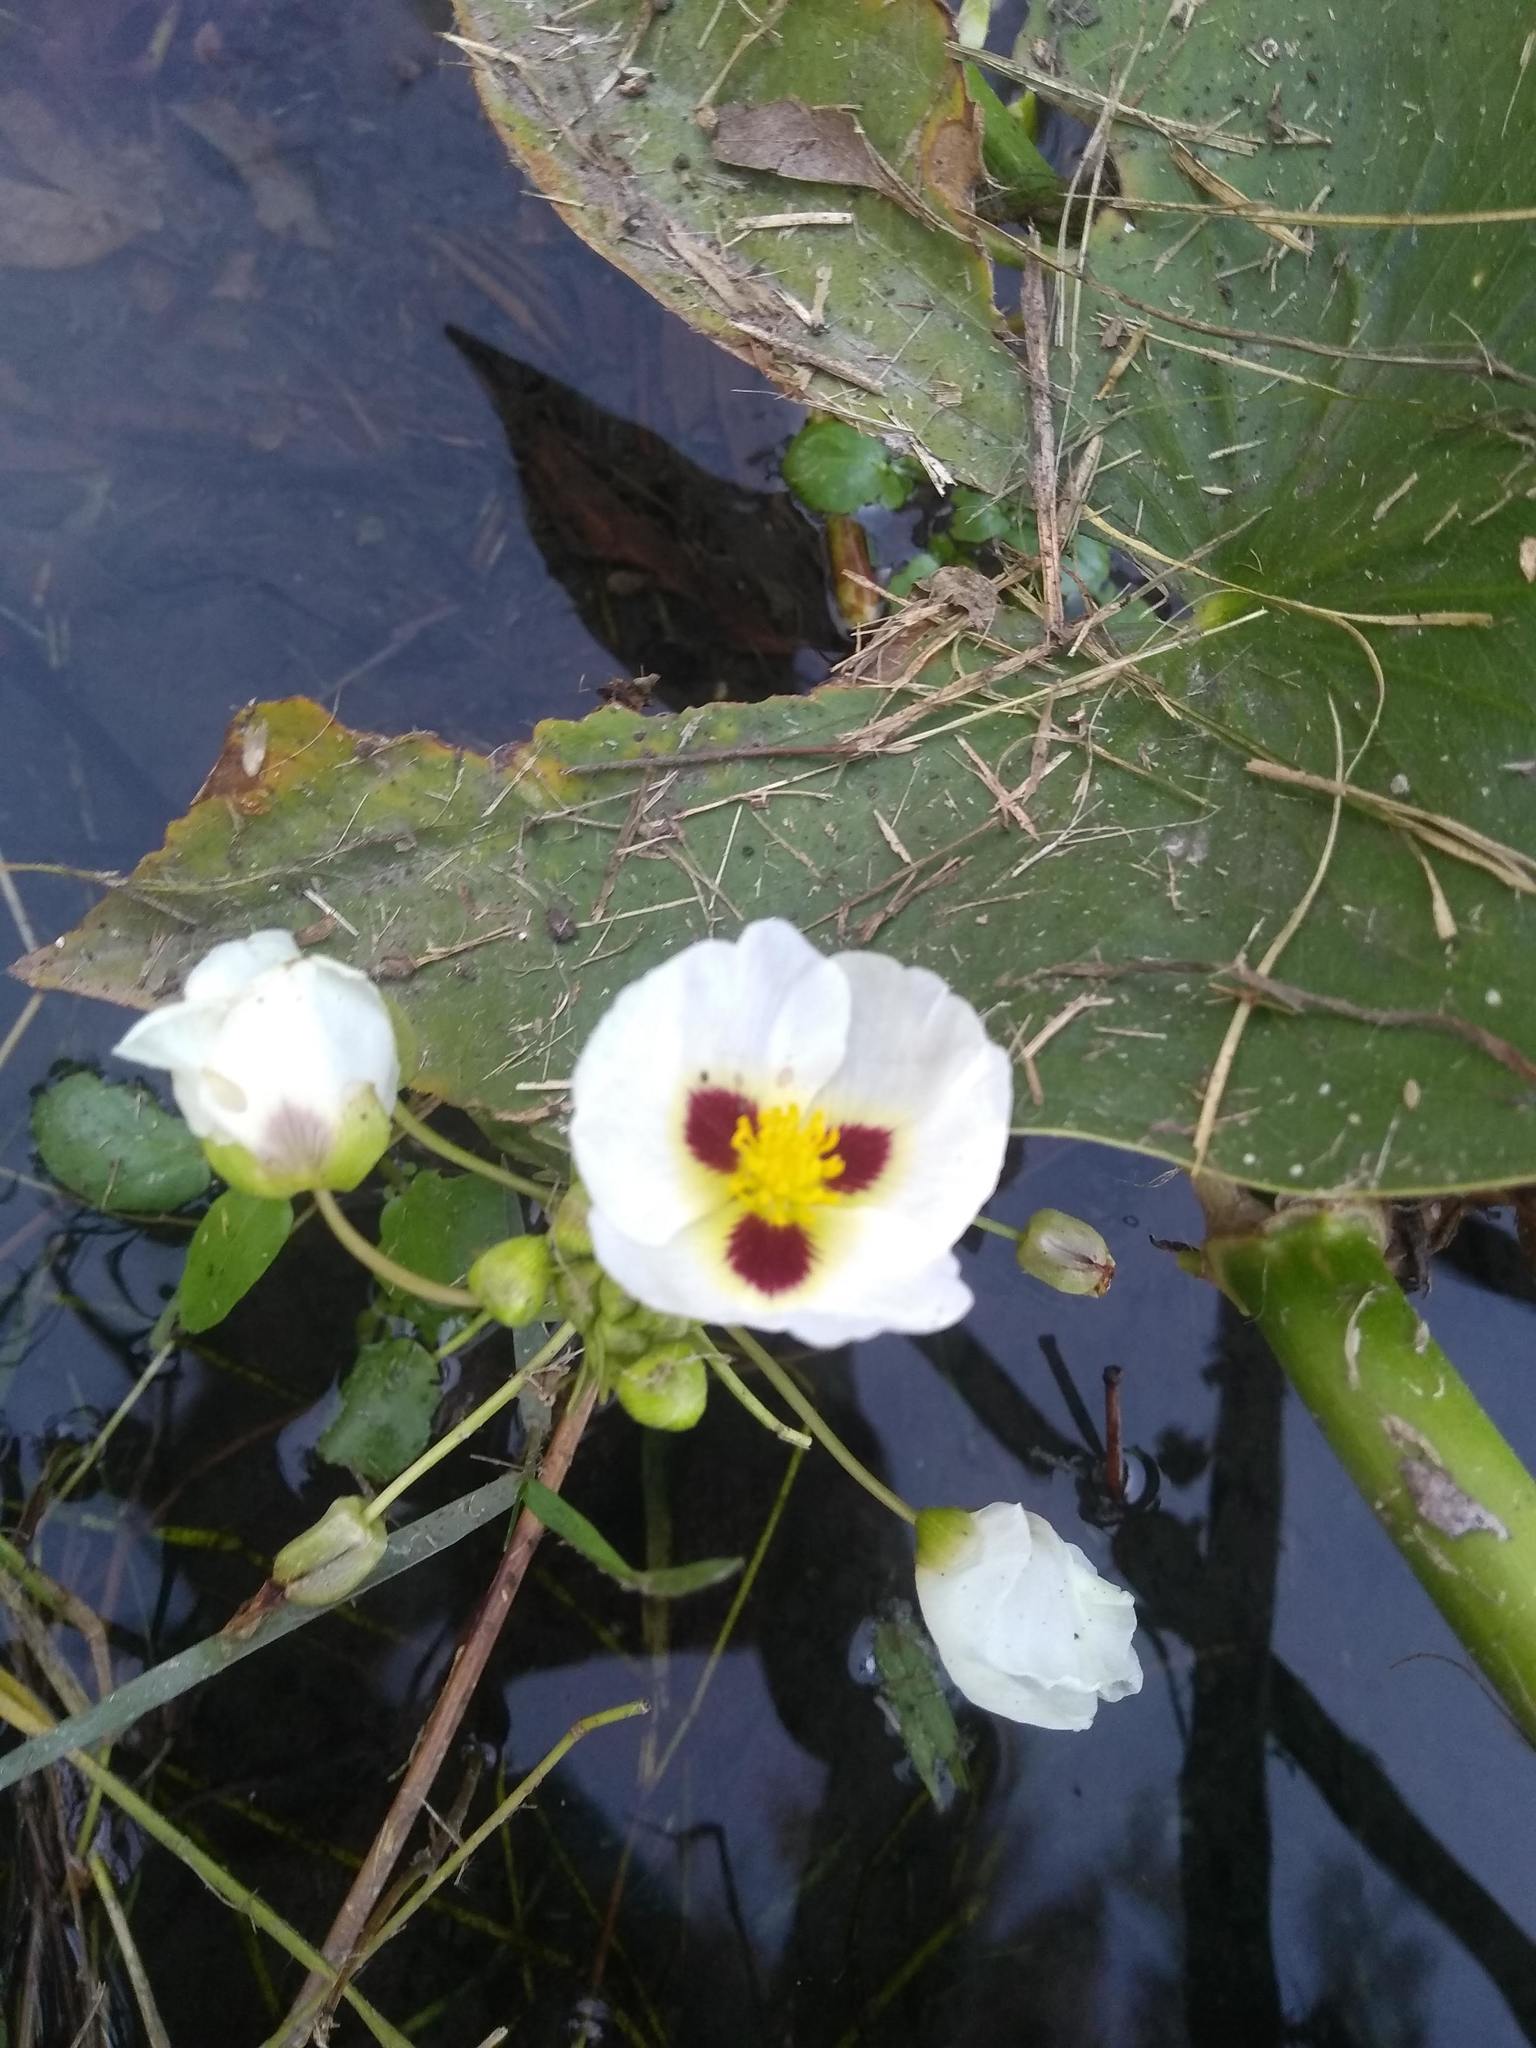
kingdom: Plantae
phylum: Tracheophyta
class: Liliopsida
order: Alismatales
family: Alismataceae
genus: Sagittaria
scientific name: Sagittaria montevidensis
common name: Giant arrowhead
